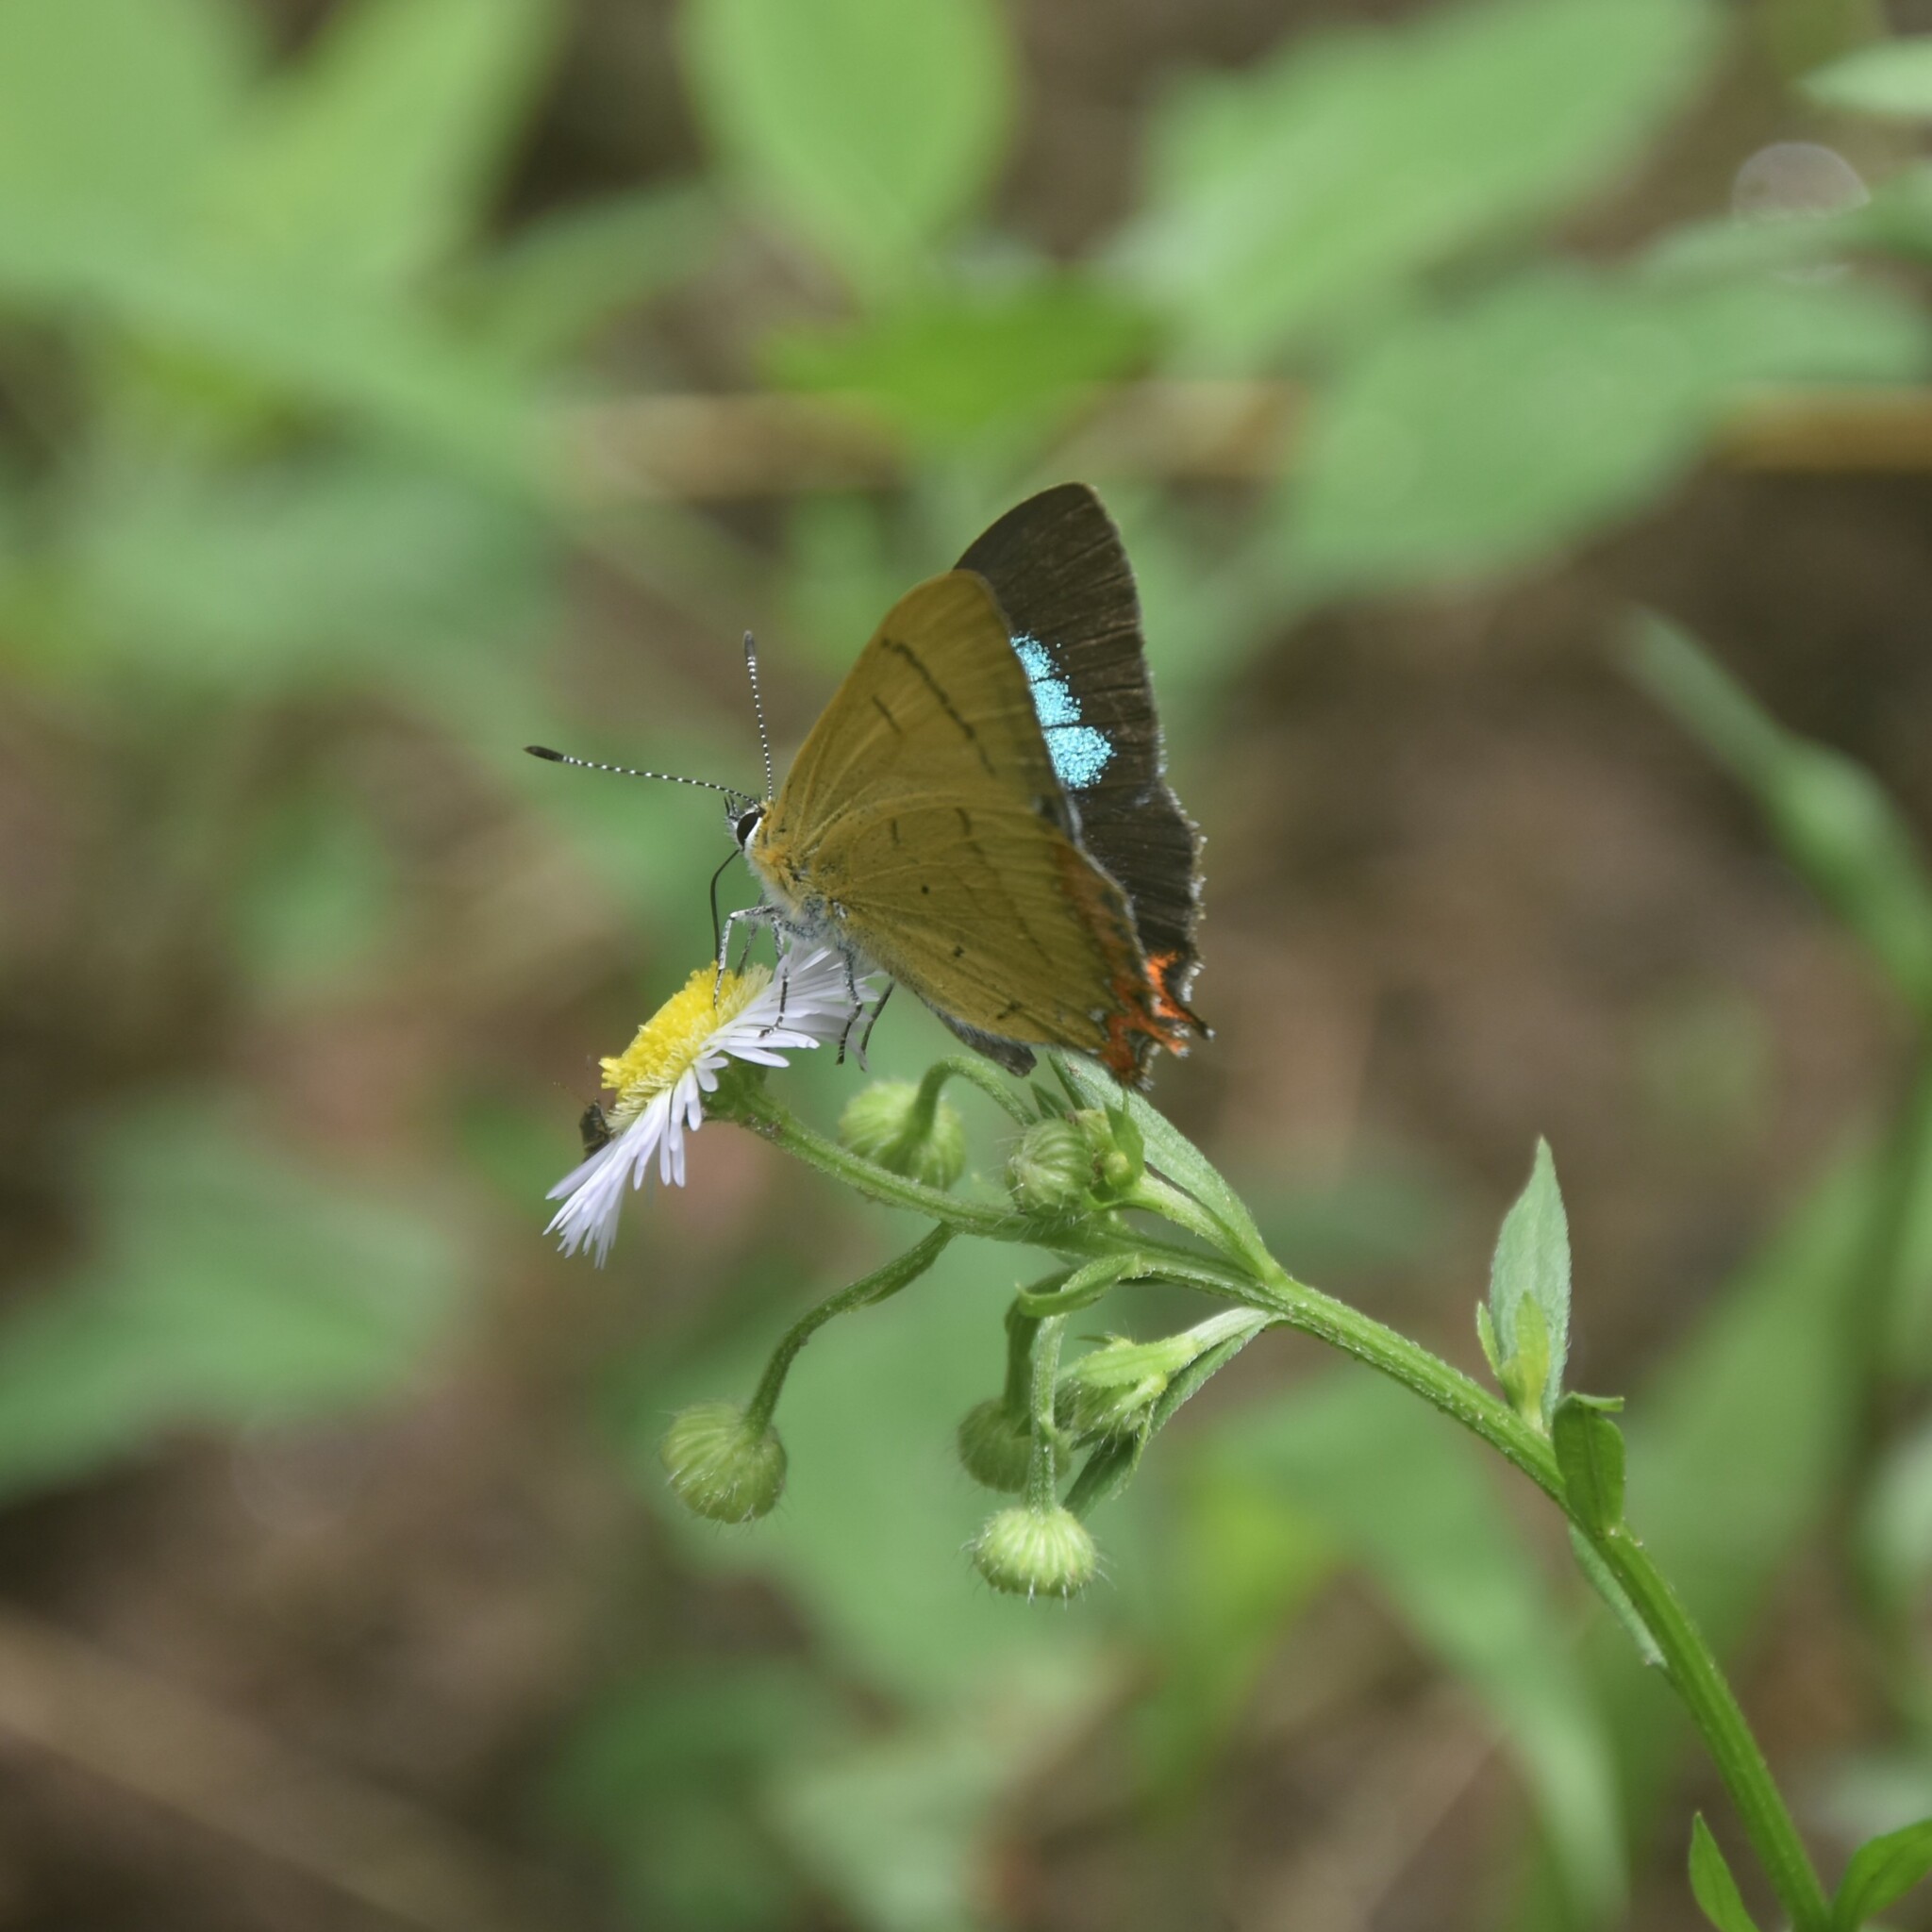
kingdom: Animalia
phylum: Arthropoda
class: Insecta
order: Lepidoptera
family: Lycaenidae
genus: Heliophorus
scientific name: Heliophorus
